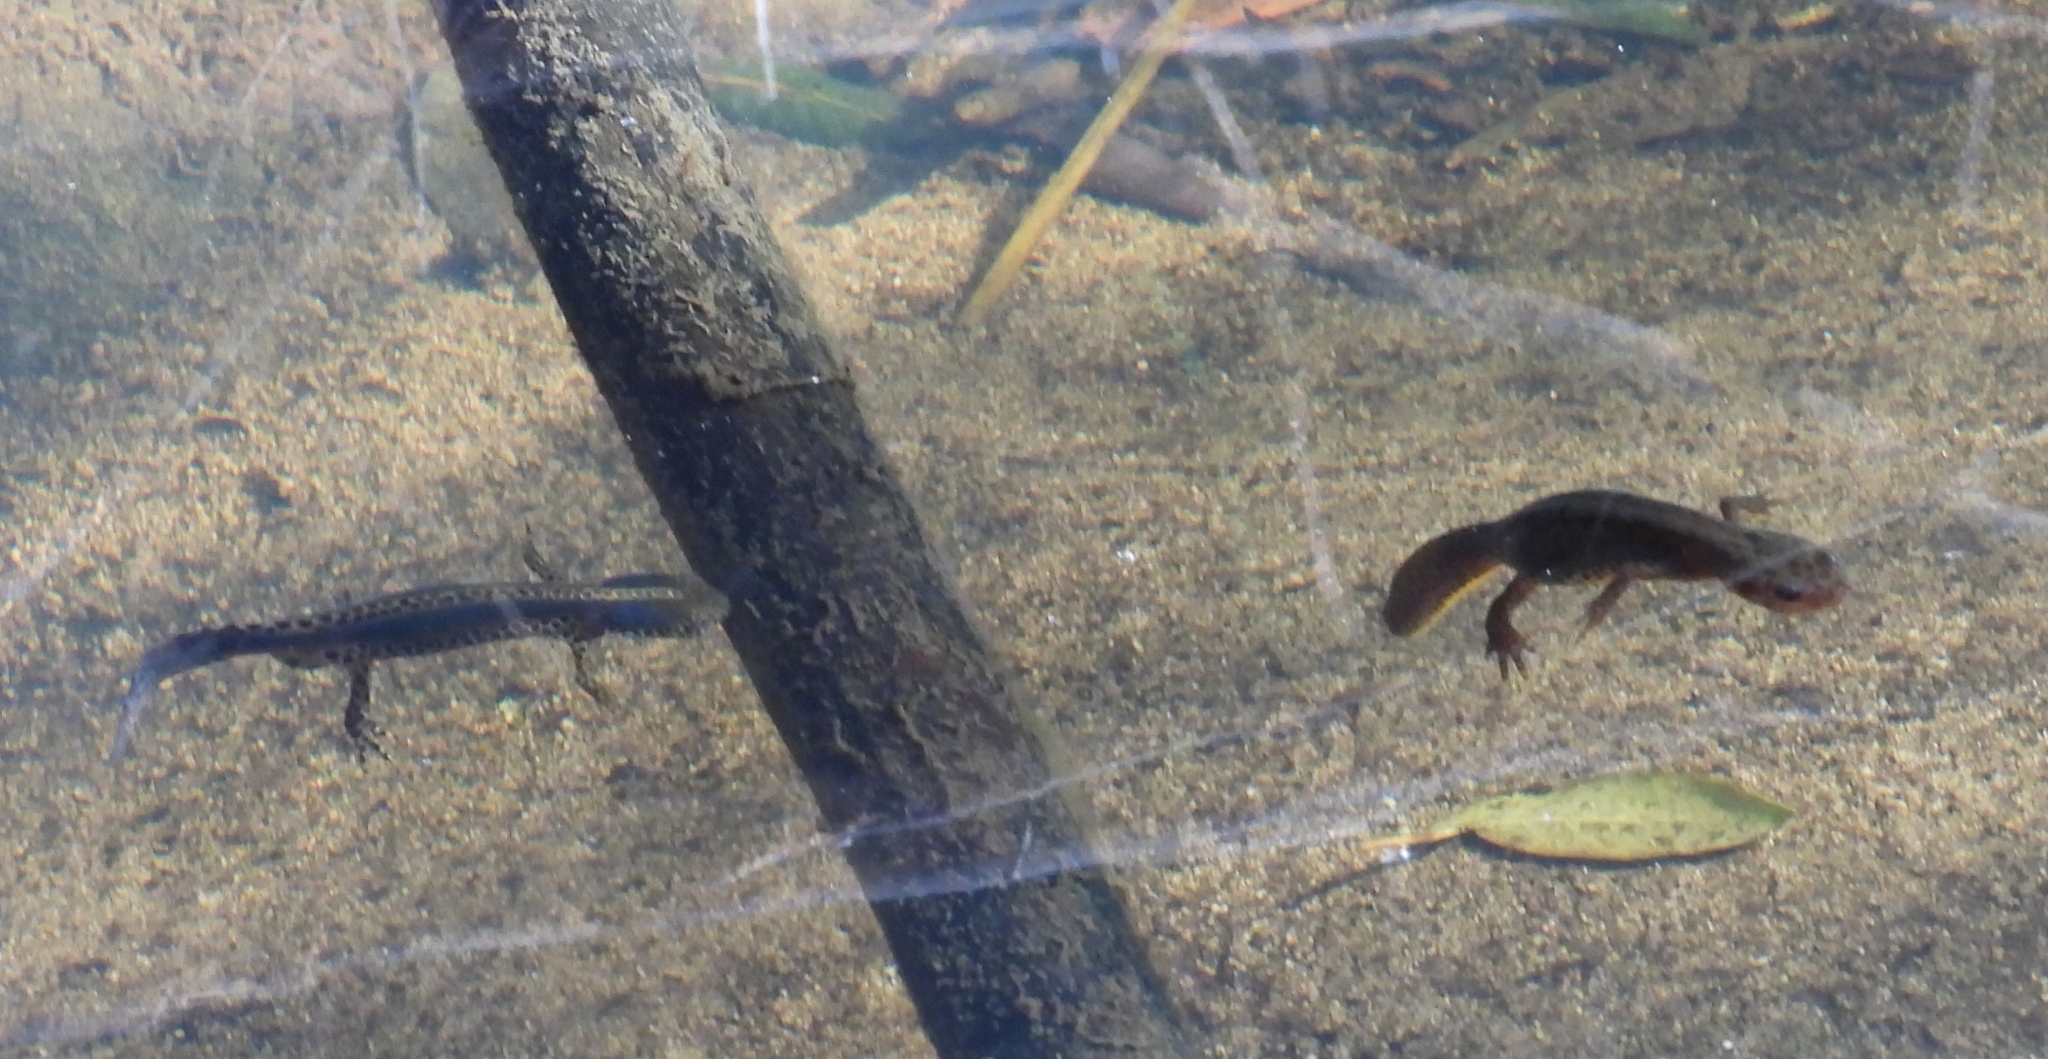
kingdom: Animalia
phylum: Chordata
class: Amphibia
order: Caudata
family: Salamandridae
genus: Ichthyosaura
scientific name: Ichthyosaura alpestris
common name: Alpine newt
